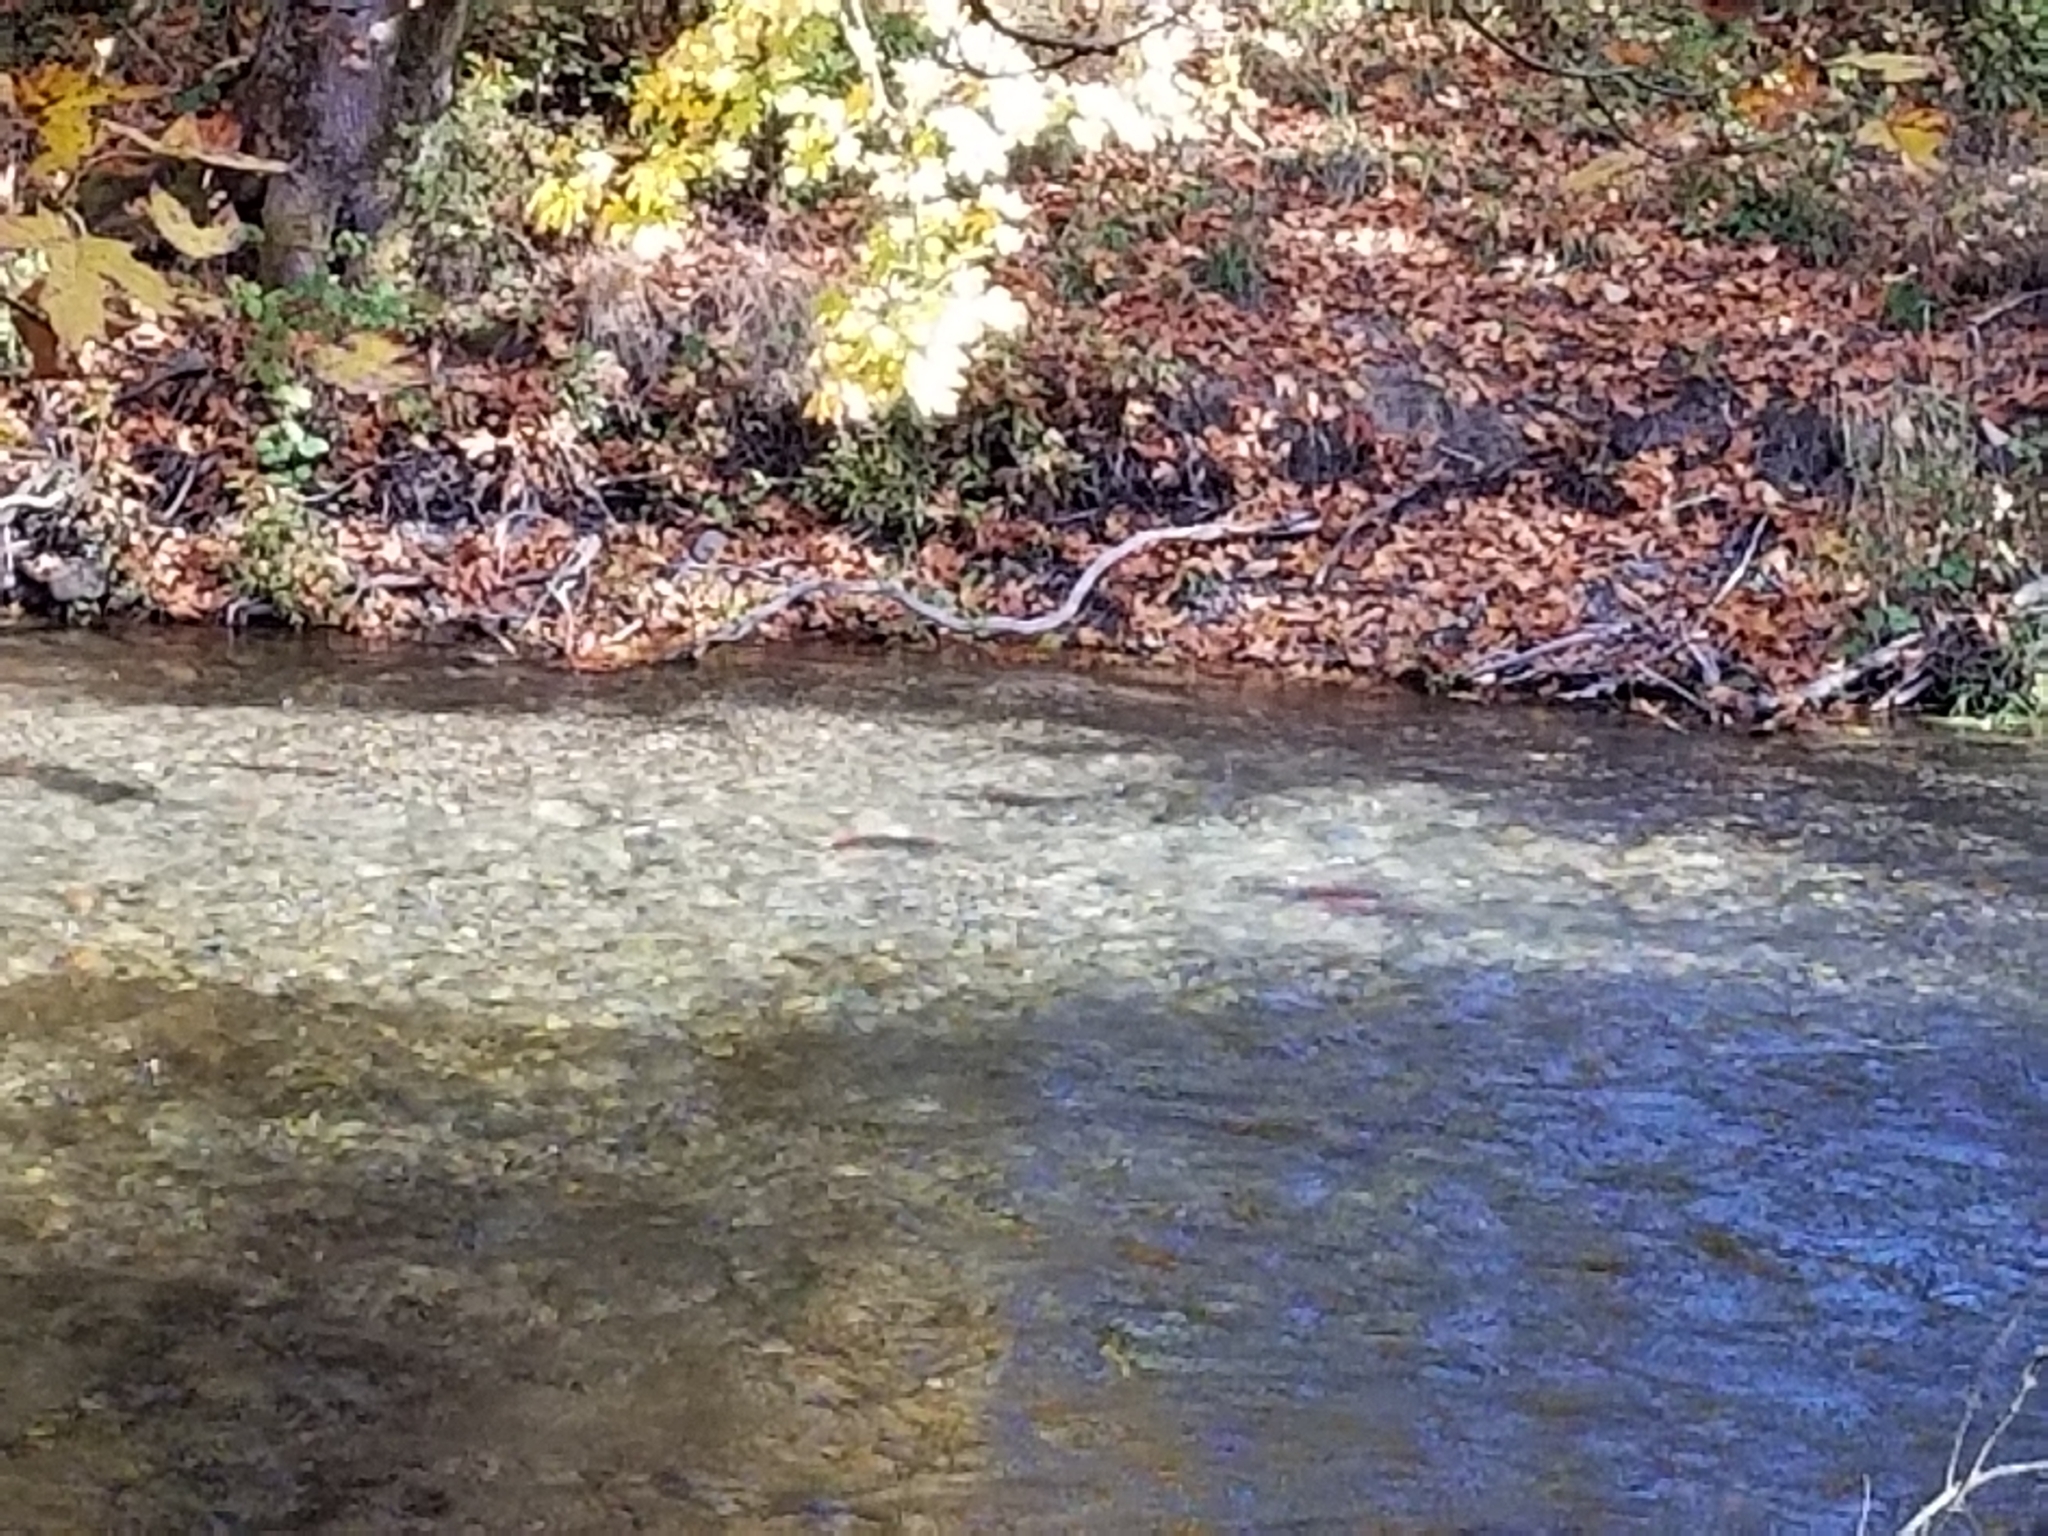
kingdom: Animalia
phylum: Chordata
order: Salmoniformes
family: Salmonidae
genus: Oncorhynchus
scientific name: Oncorhynchus nerka
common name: Sockeye salmon
